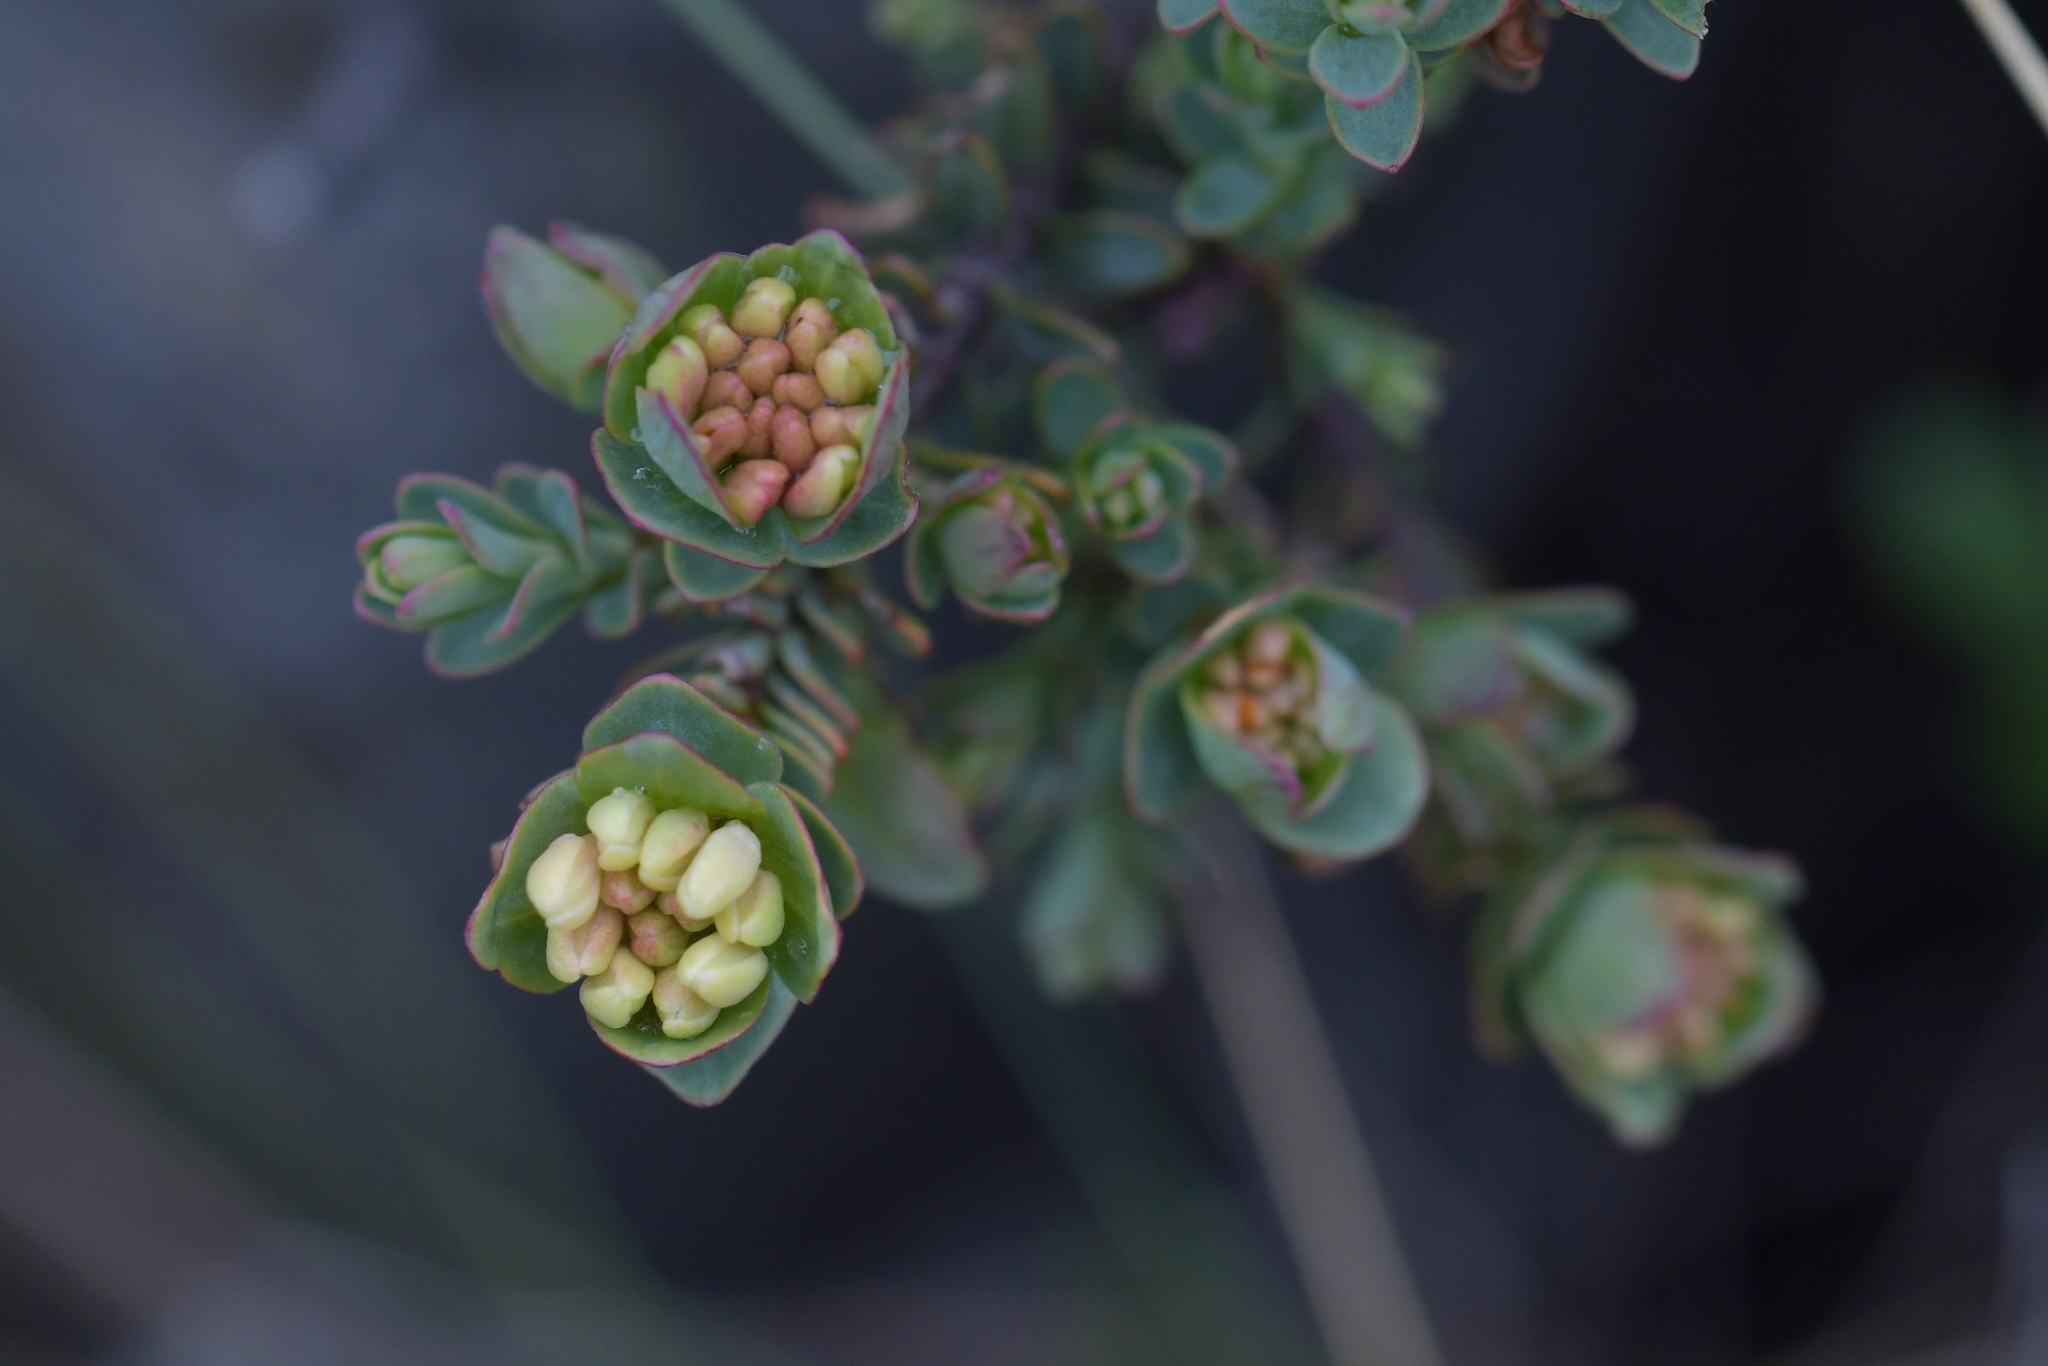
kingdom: Plantae
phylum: Tracheophyta
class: Magnoliopsida
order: Malvales
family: Thymelaeaceae
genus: Pimelea
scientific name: Pimelea traversii
